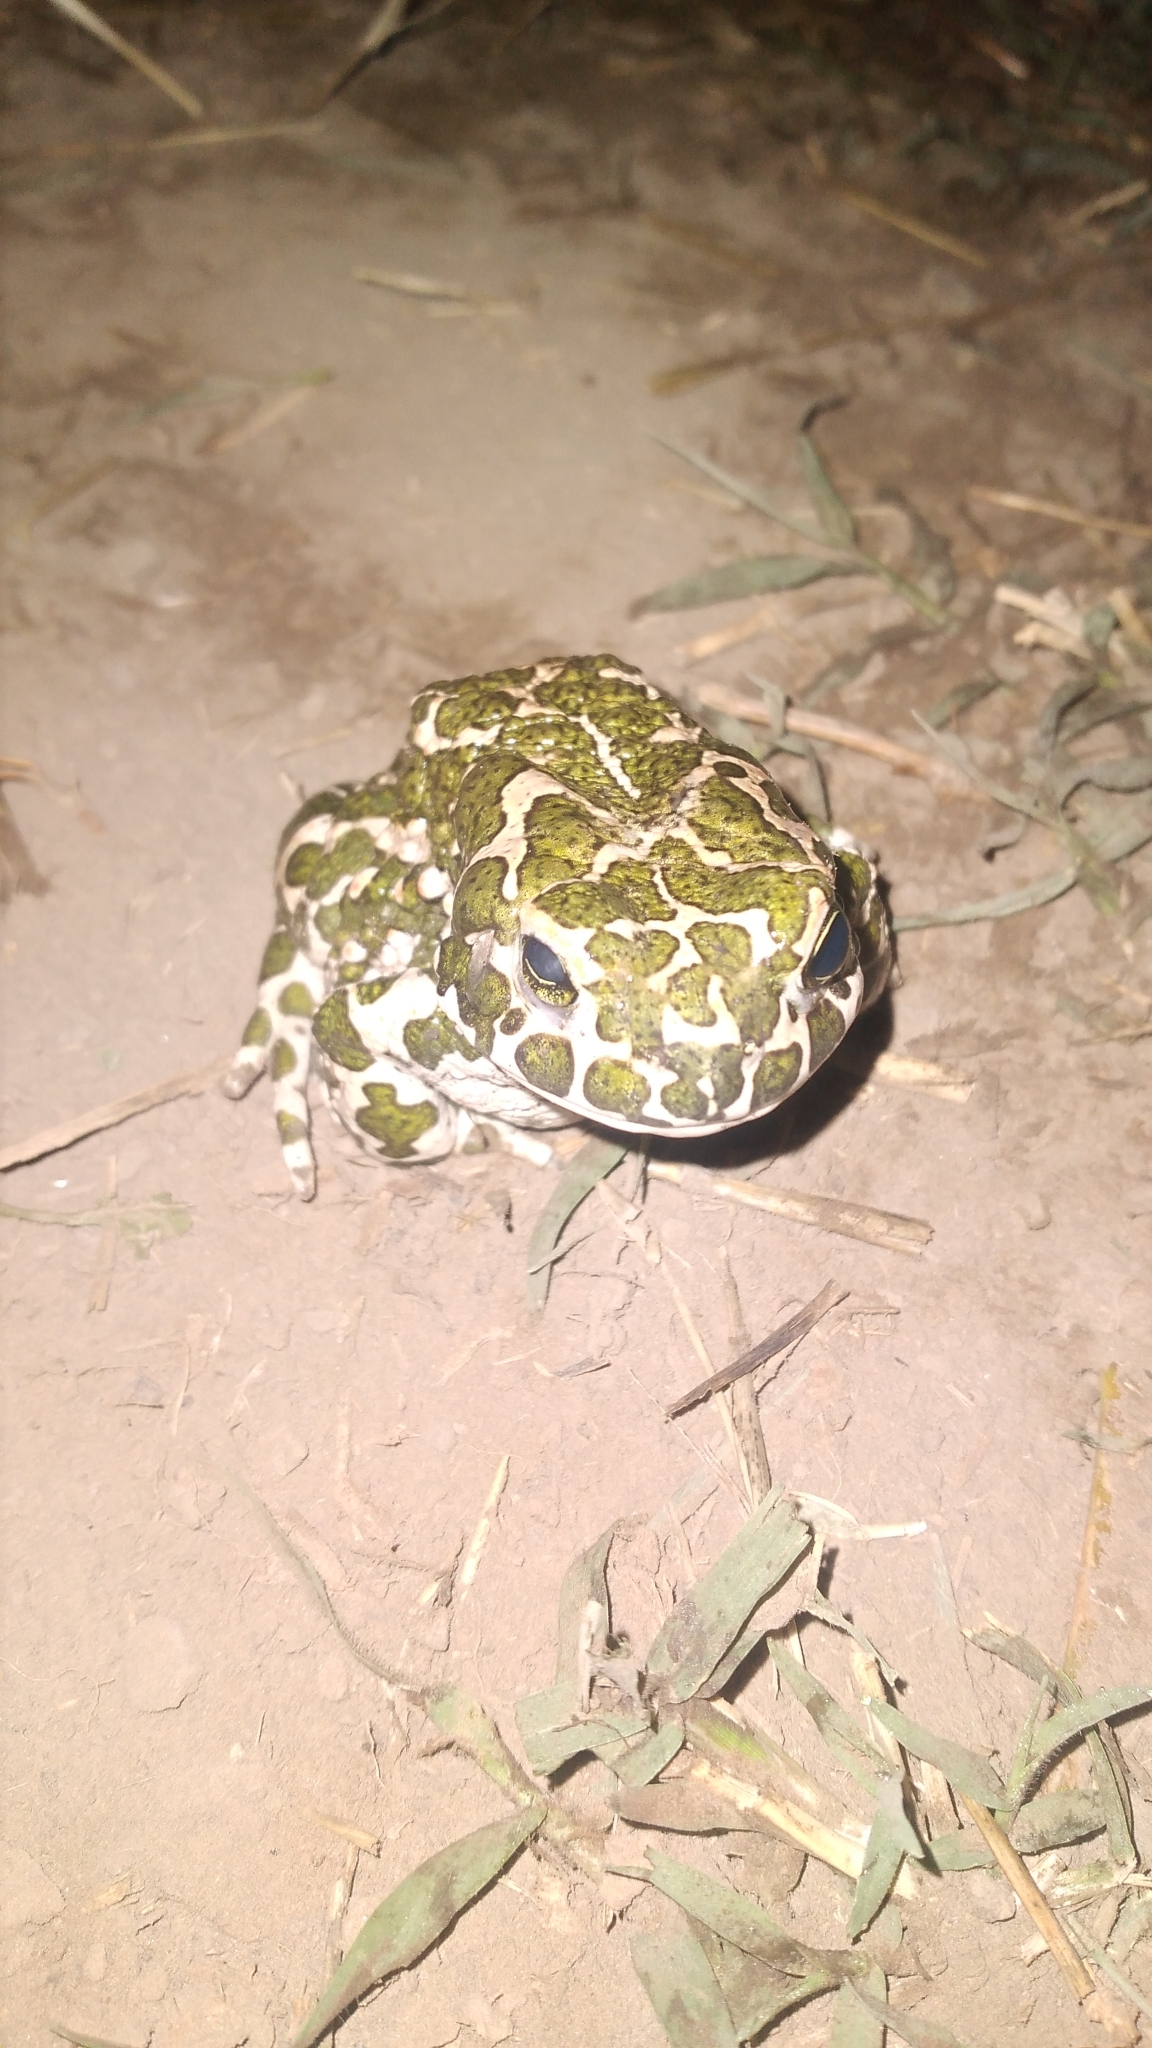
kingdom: Animalia
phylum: Chordata
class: Amphibia
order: Anura
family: Bufonidae
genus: Bufotes
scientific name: Bufotes viridis
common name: European green toad
